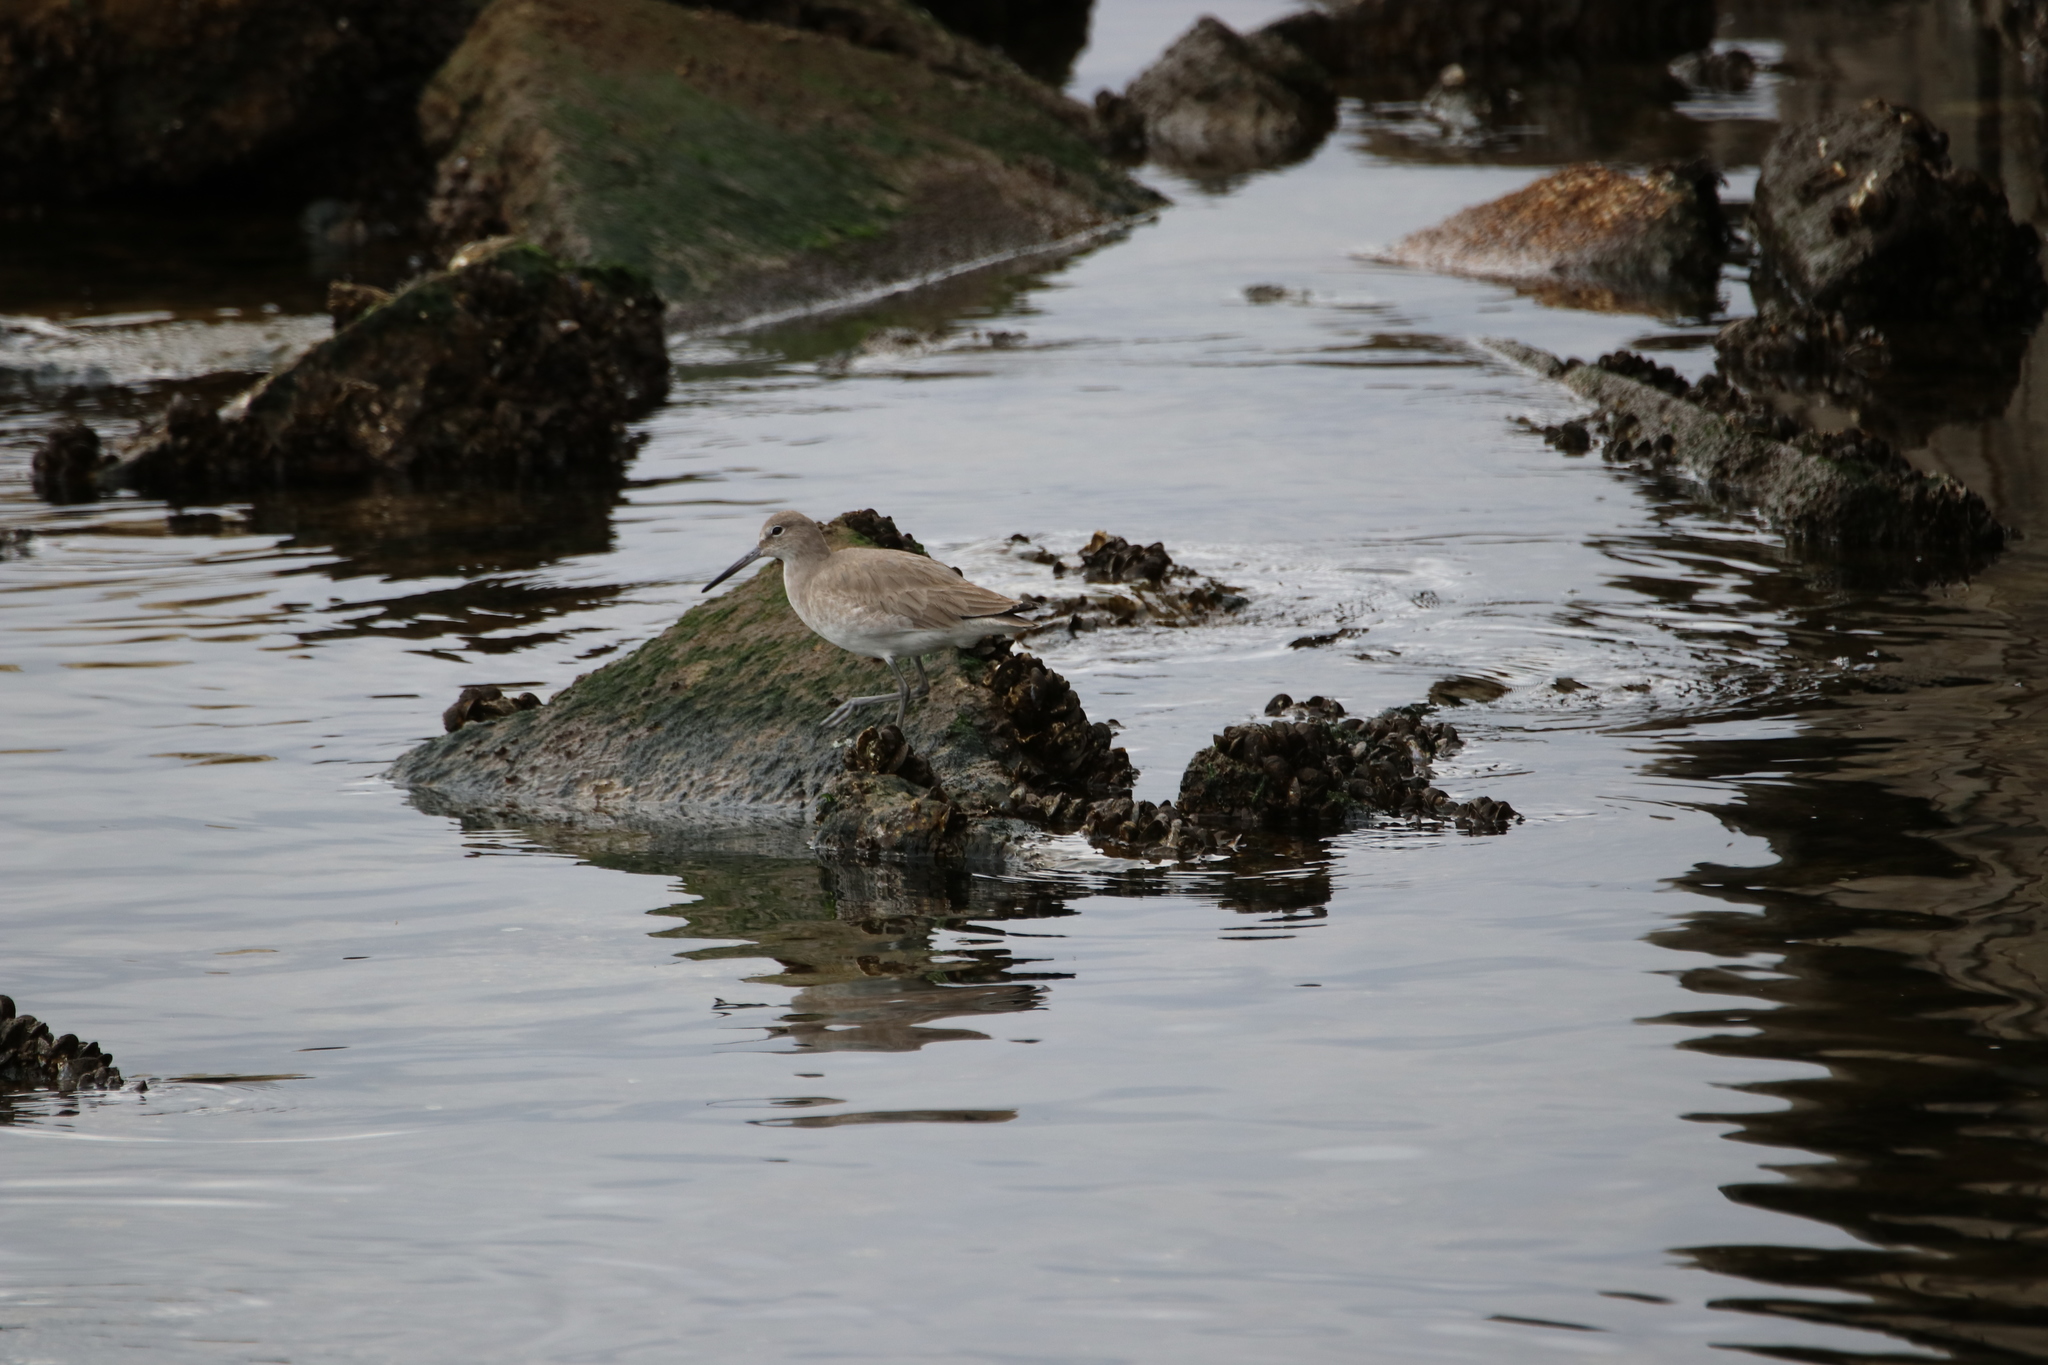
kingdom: Animalia
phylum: Chordata
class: Aves
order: Charadriiformes
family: Scolopacidae
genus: Tringa
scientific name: Tringa semipalmata
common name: Willet
